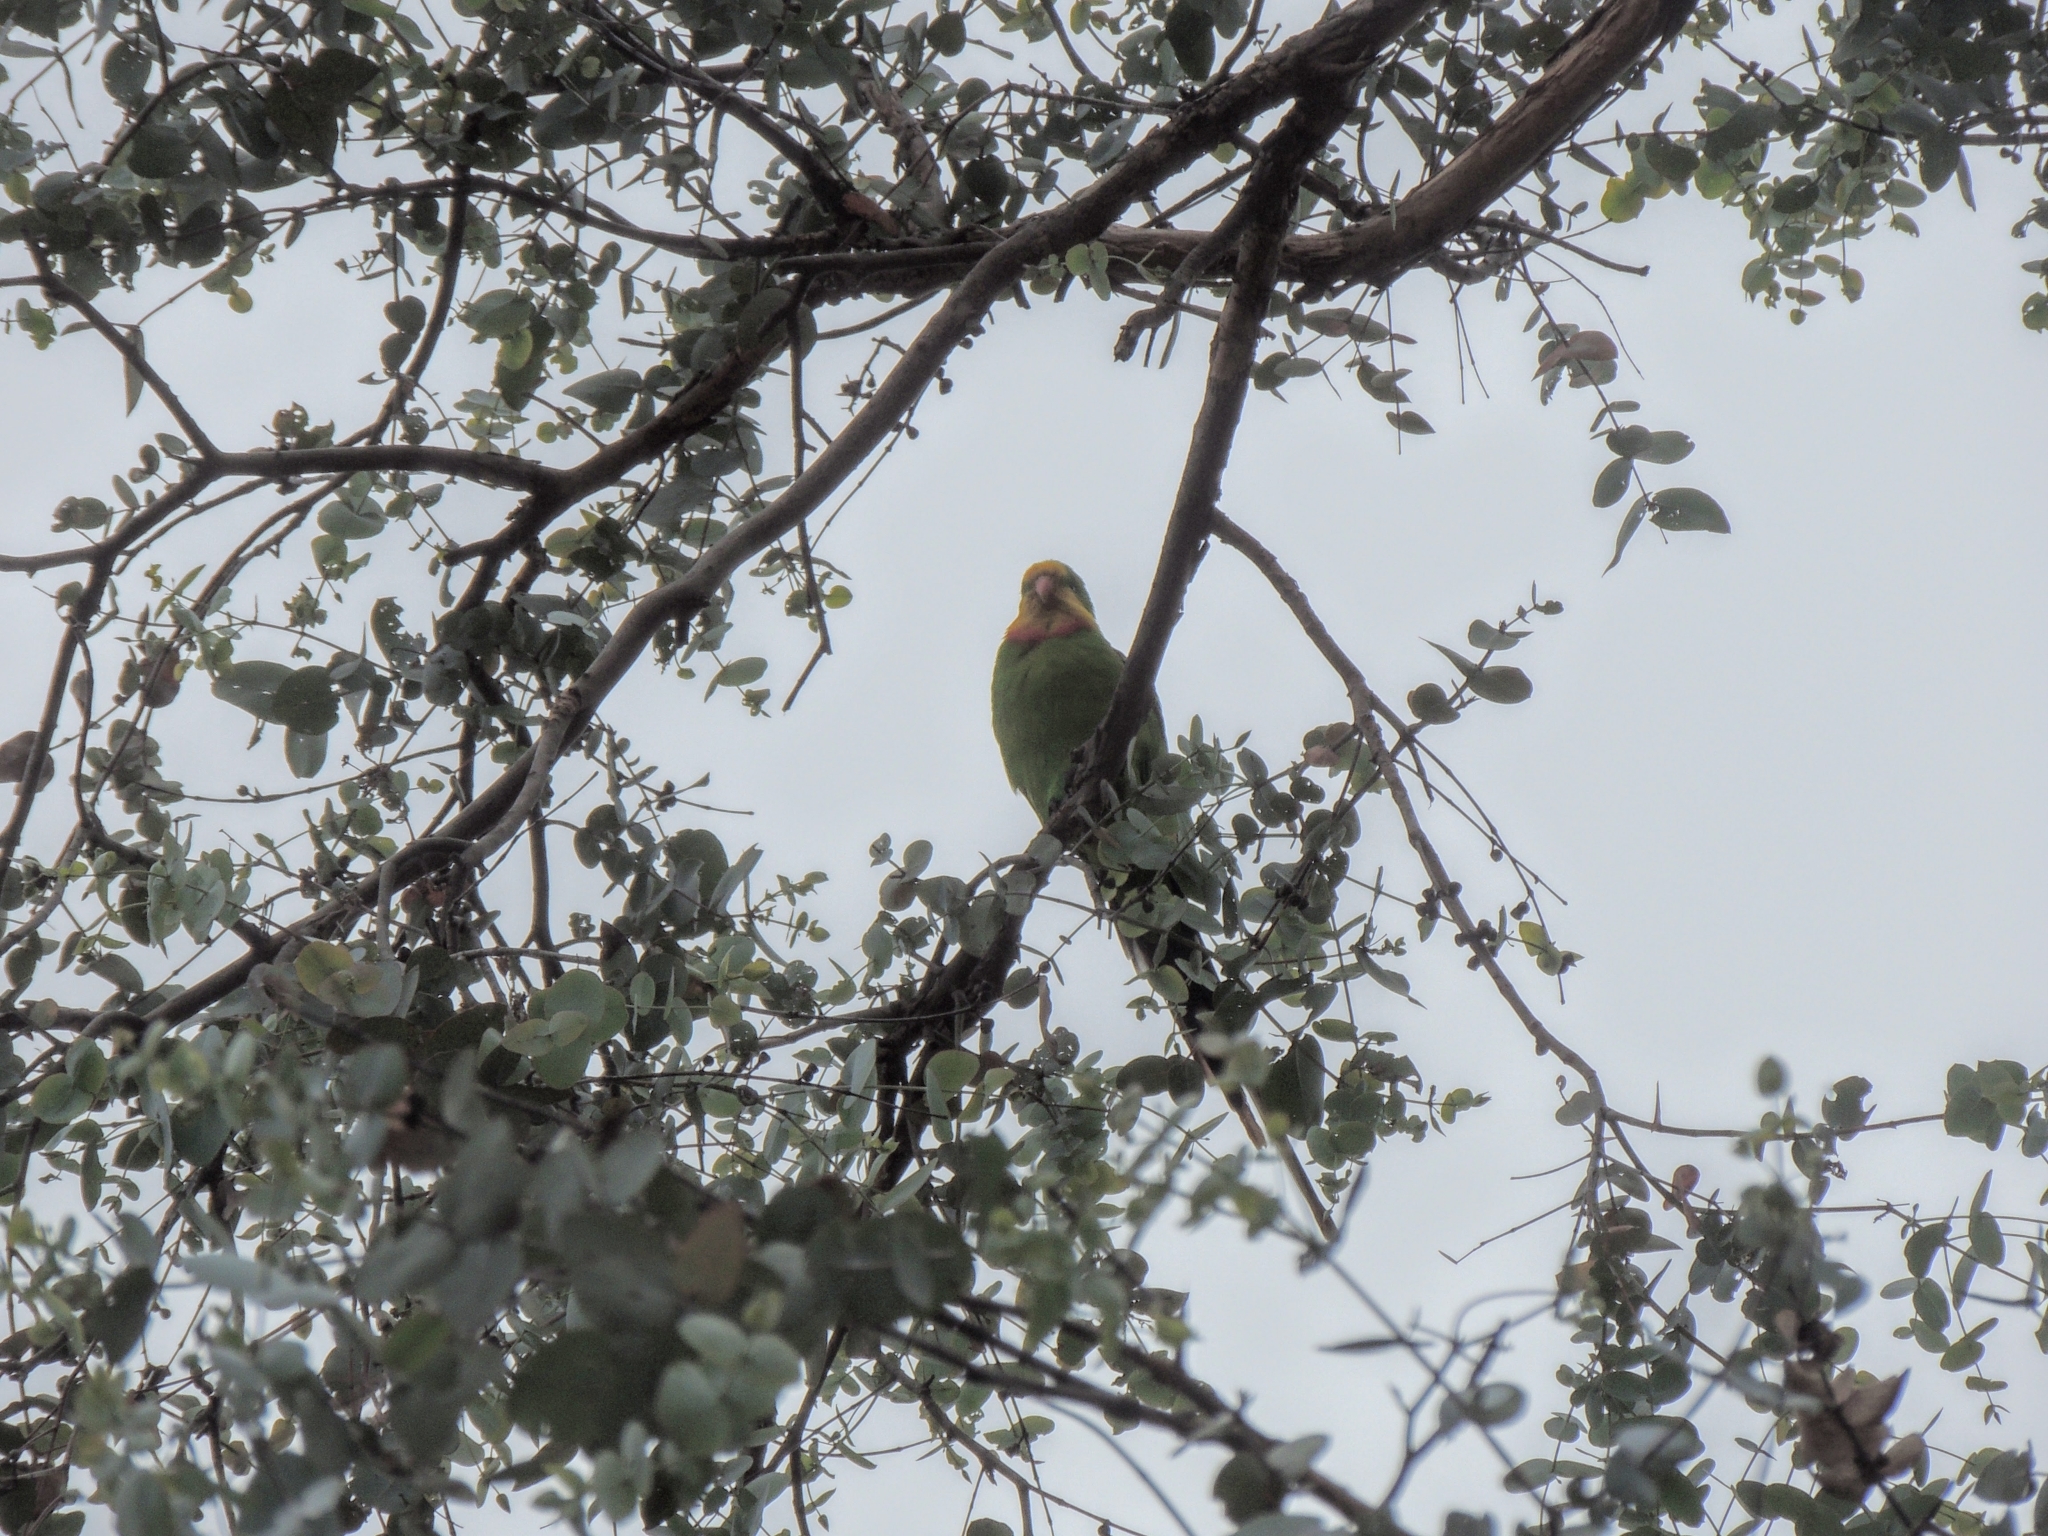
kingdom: Animalia
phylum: Chordata
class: Aves
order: Psittaciformes
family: Psittacidae
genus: Polytelis
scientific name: Polytelis swainsonii
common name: Superb parrot
